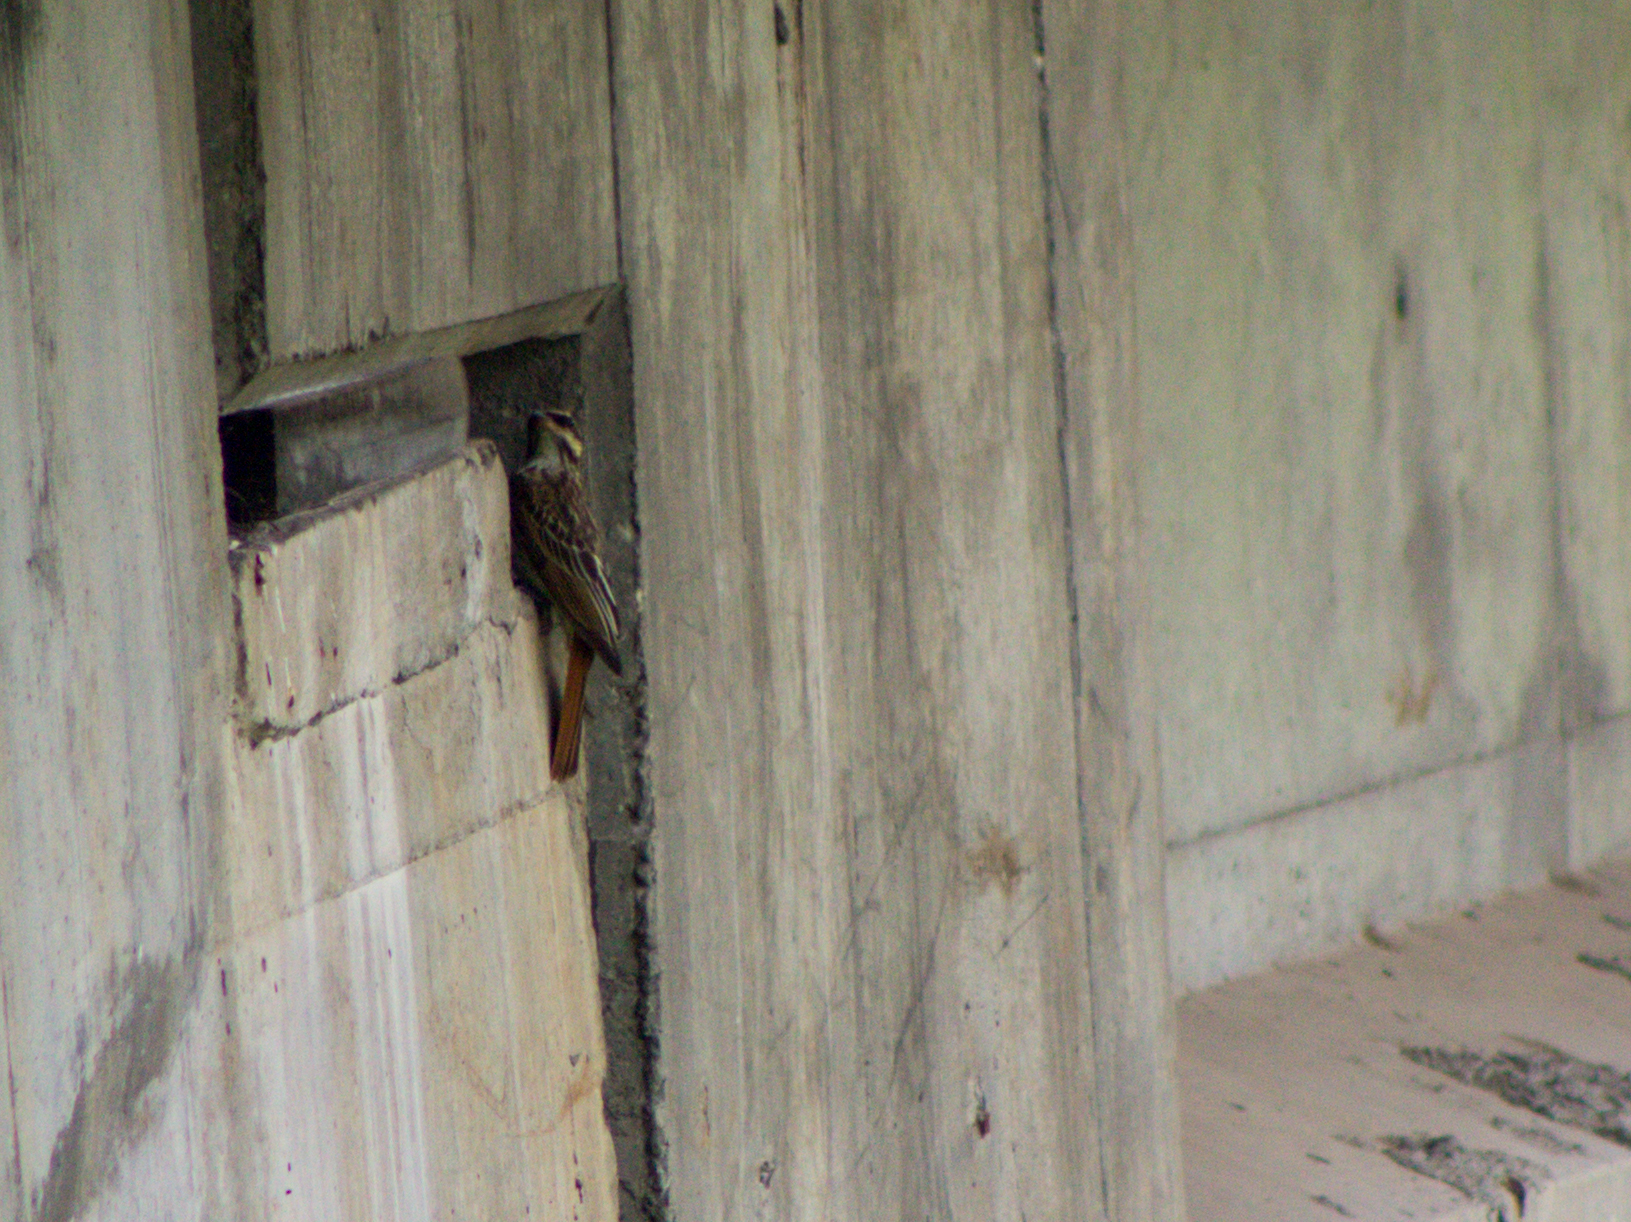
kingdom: Animalia
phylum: Chordata
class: Aves
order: Passeriformes
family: Tyrannidae
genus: Myiodynastes
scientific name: Myiodynastes maculatus
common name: Streaked flycatcher
